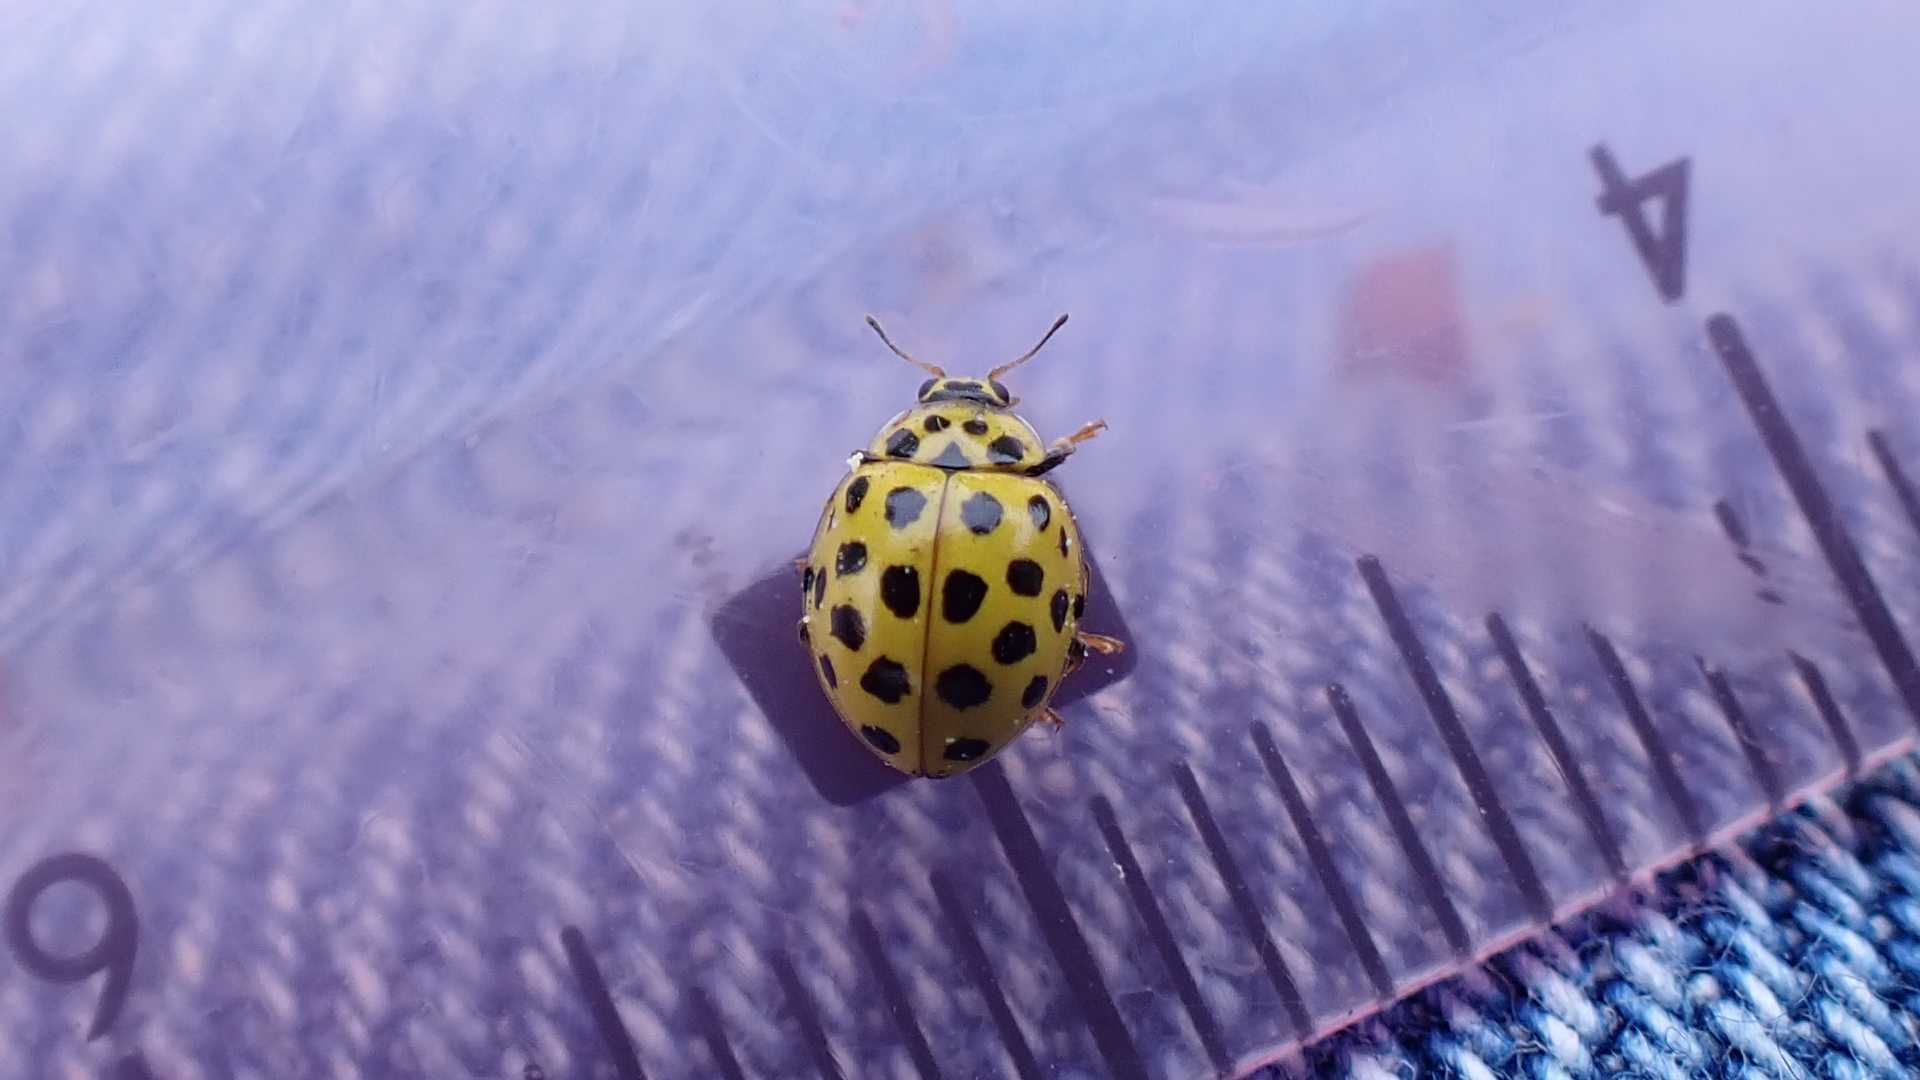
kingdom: Animalia
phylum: Arthropoda
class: Insecta
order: Coleoptera
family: Coccinellidae
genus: Psyllobora
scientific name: Psyllobora vigintiduopunctata
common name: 22-spot ladybird
